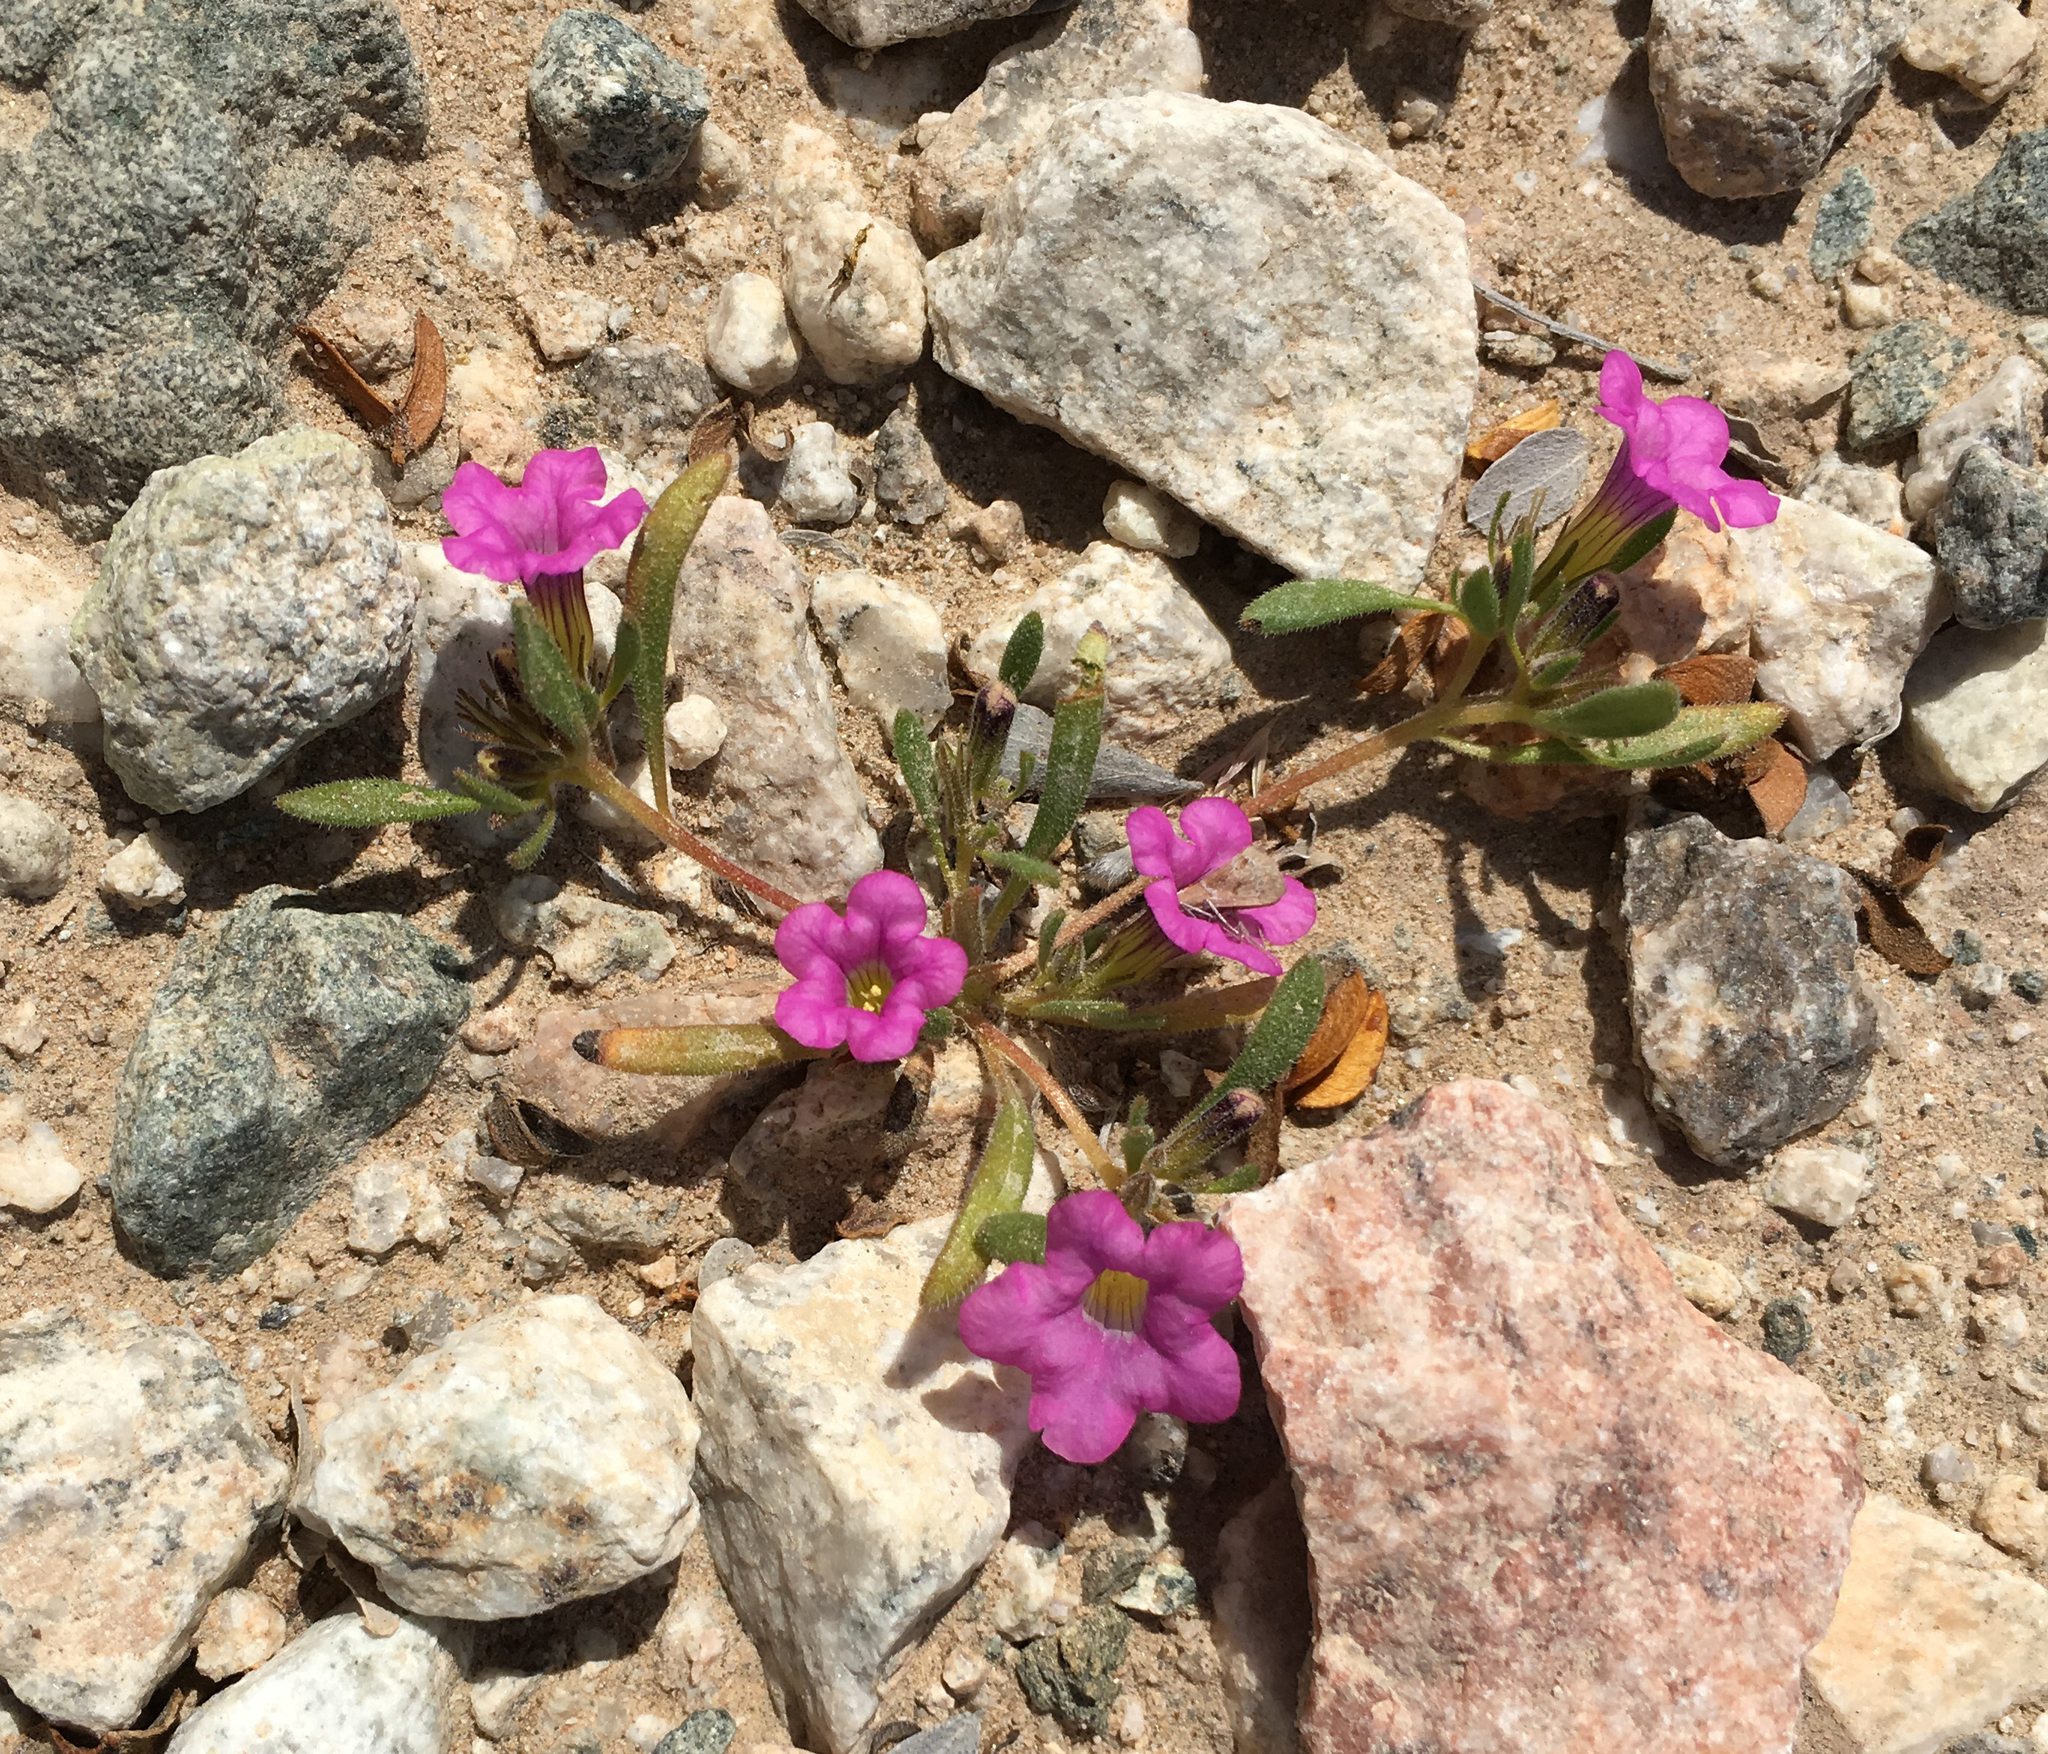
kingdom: Plantae
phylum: Tracheophyta
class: Magnoliopsida
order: Boraginales
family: Namaceae
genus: Nama
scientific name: Nama demissa
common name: Leafy nama
